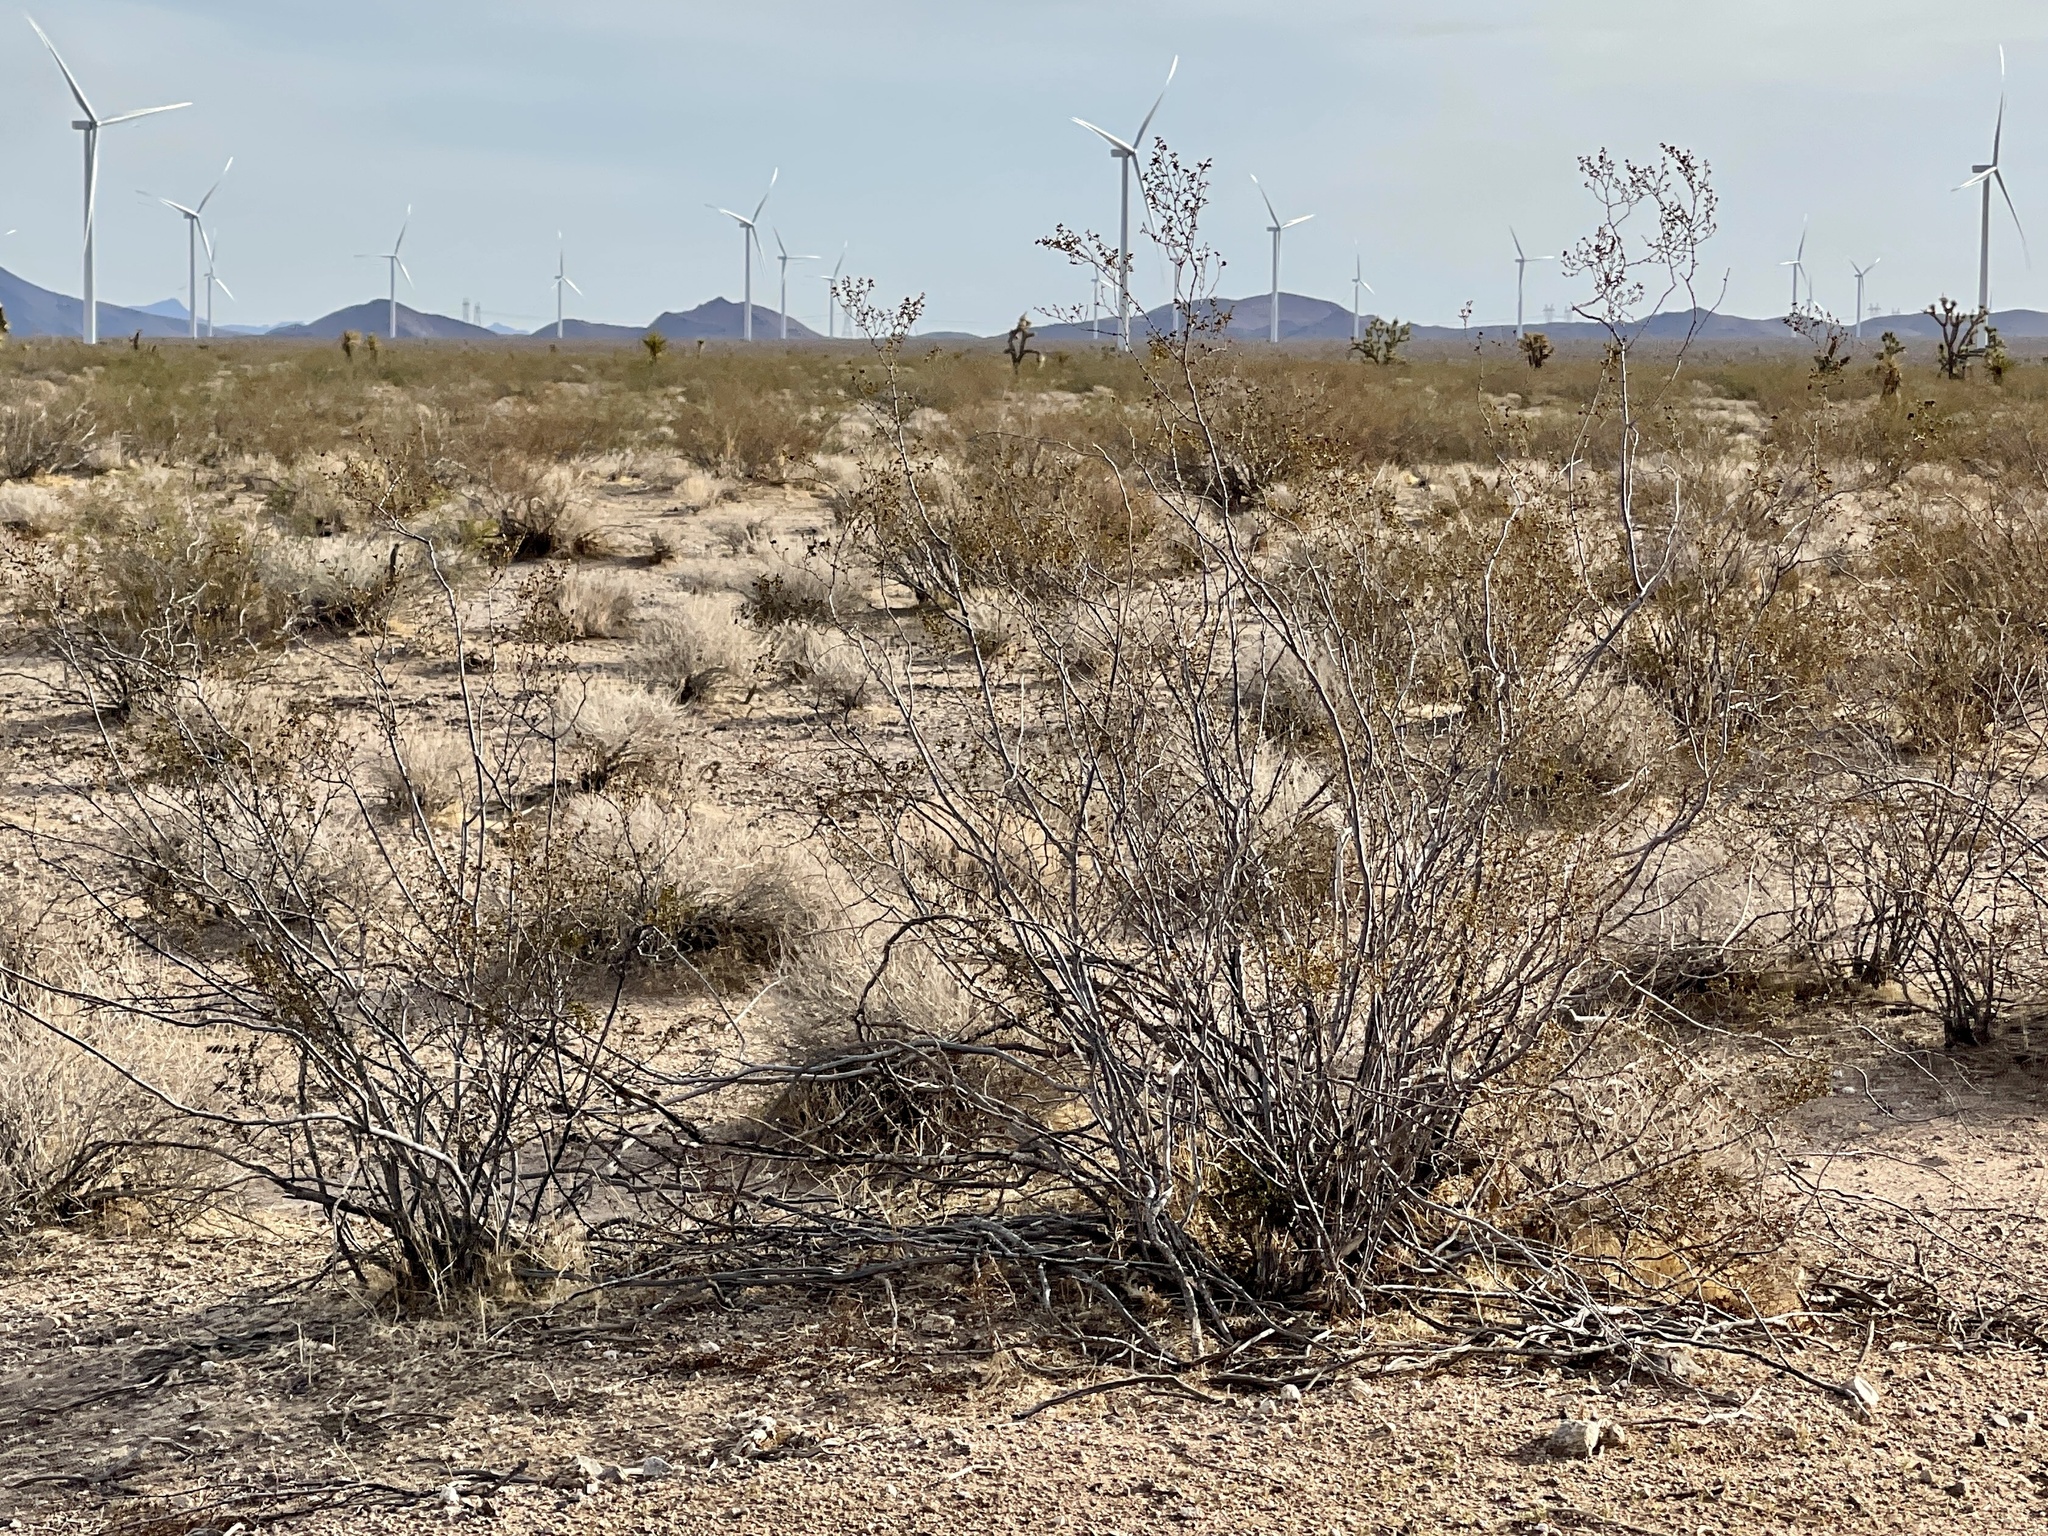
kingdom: Plantae
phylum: Tracheophyta
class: Magnoliopsida
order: Zygophyllales
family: Zygophyllaceae
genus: Larrea
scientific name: Larrea tridentata
